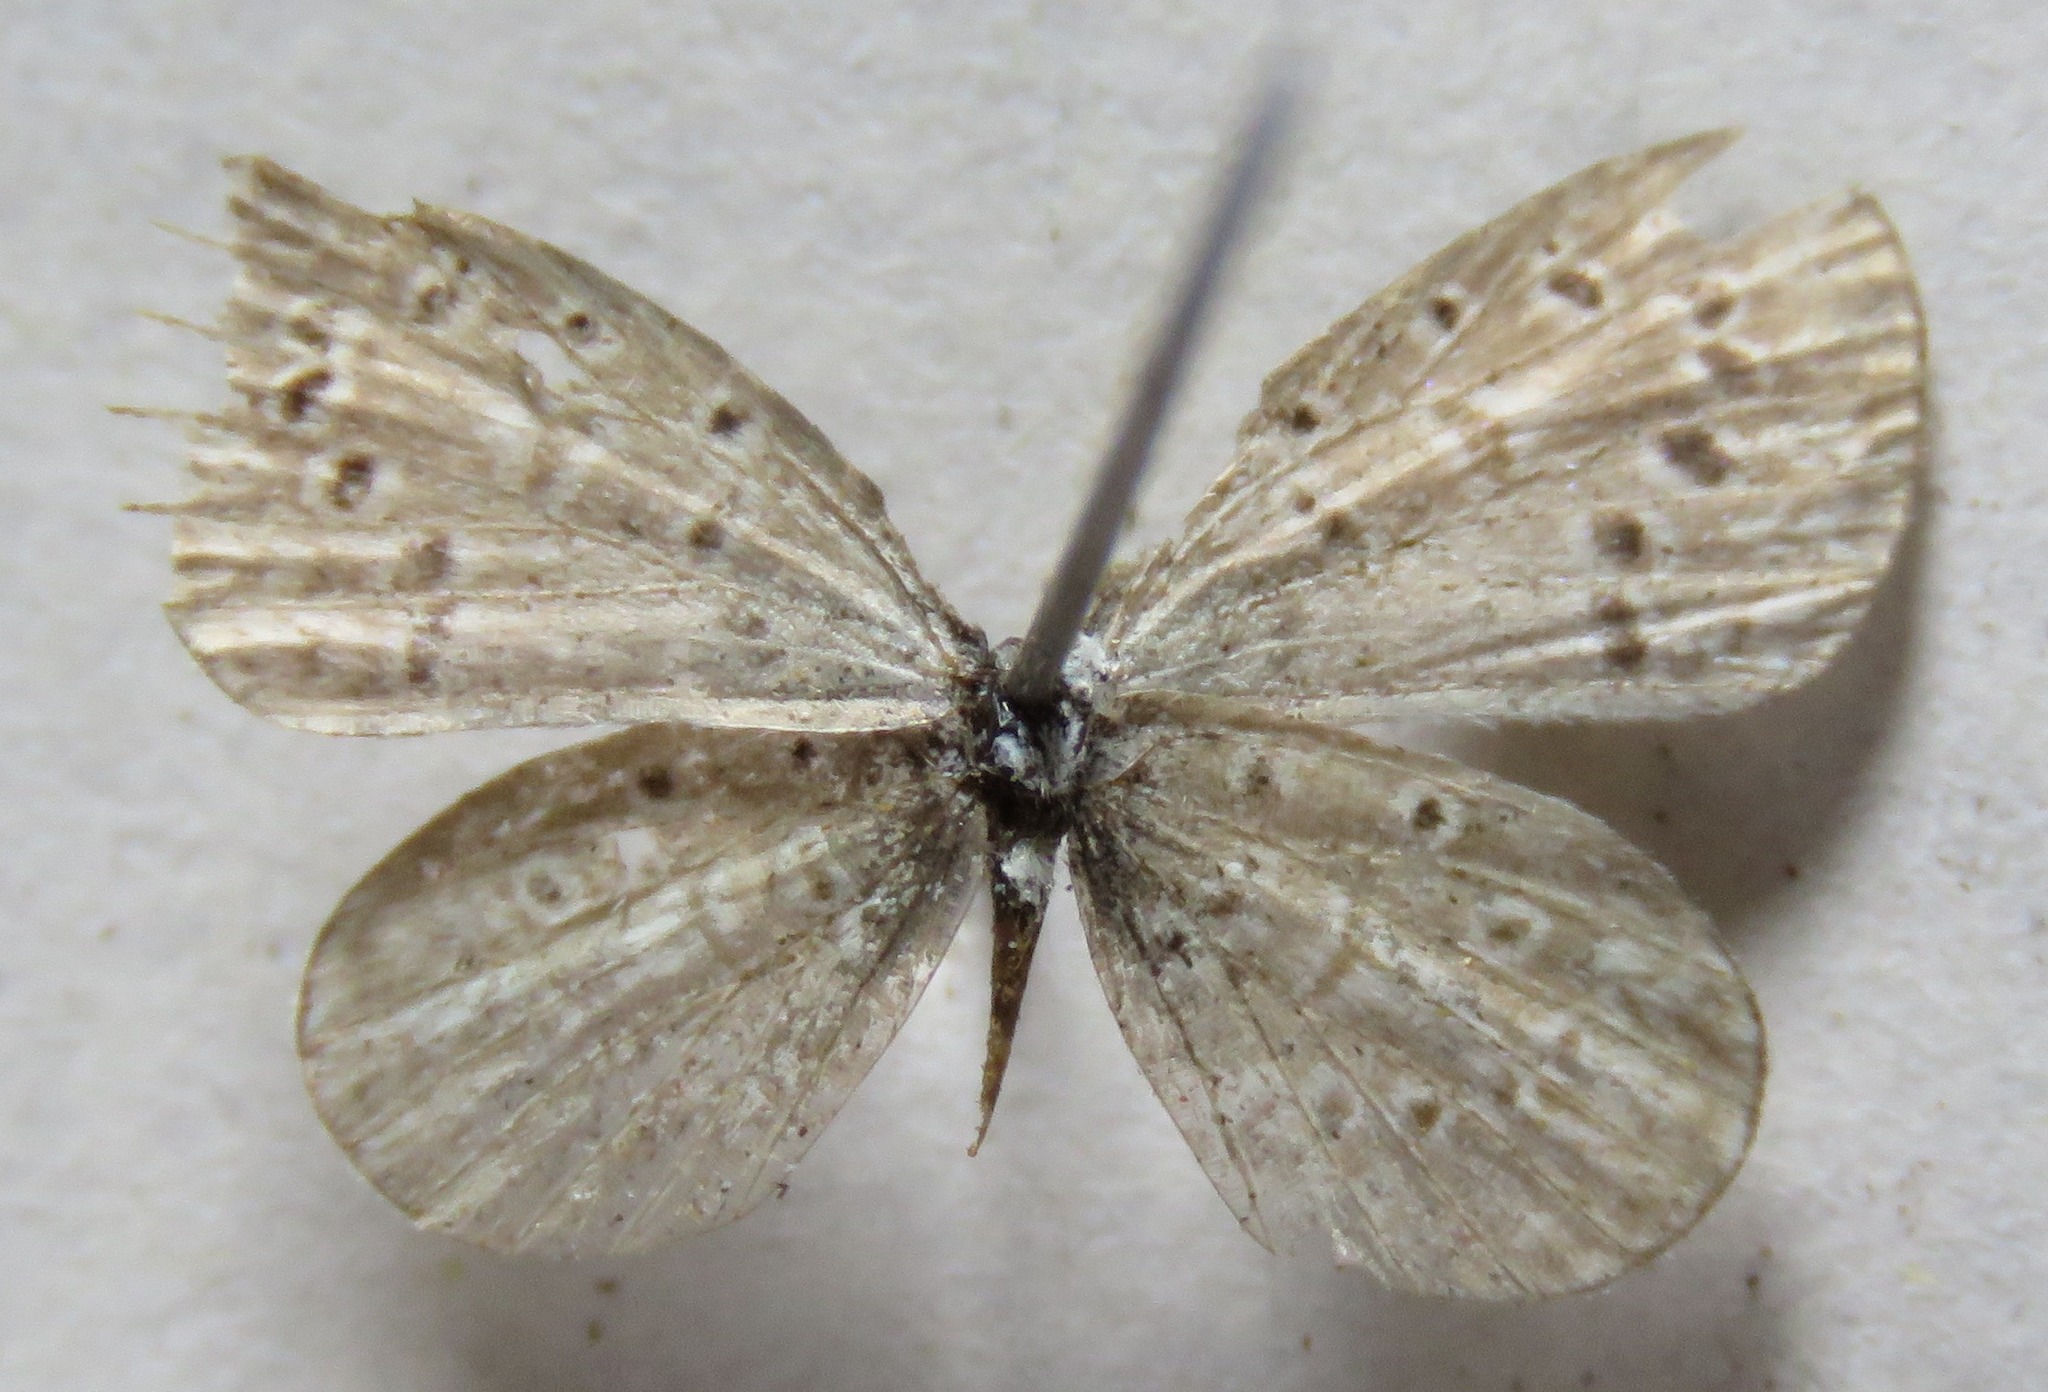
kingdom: Animalia
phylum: Arthropoda
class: Insecta
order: Lepidoptera
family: Lycaenidae
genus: Lycaena
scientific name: Lycaena cyna
